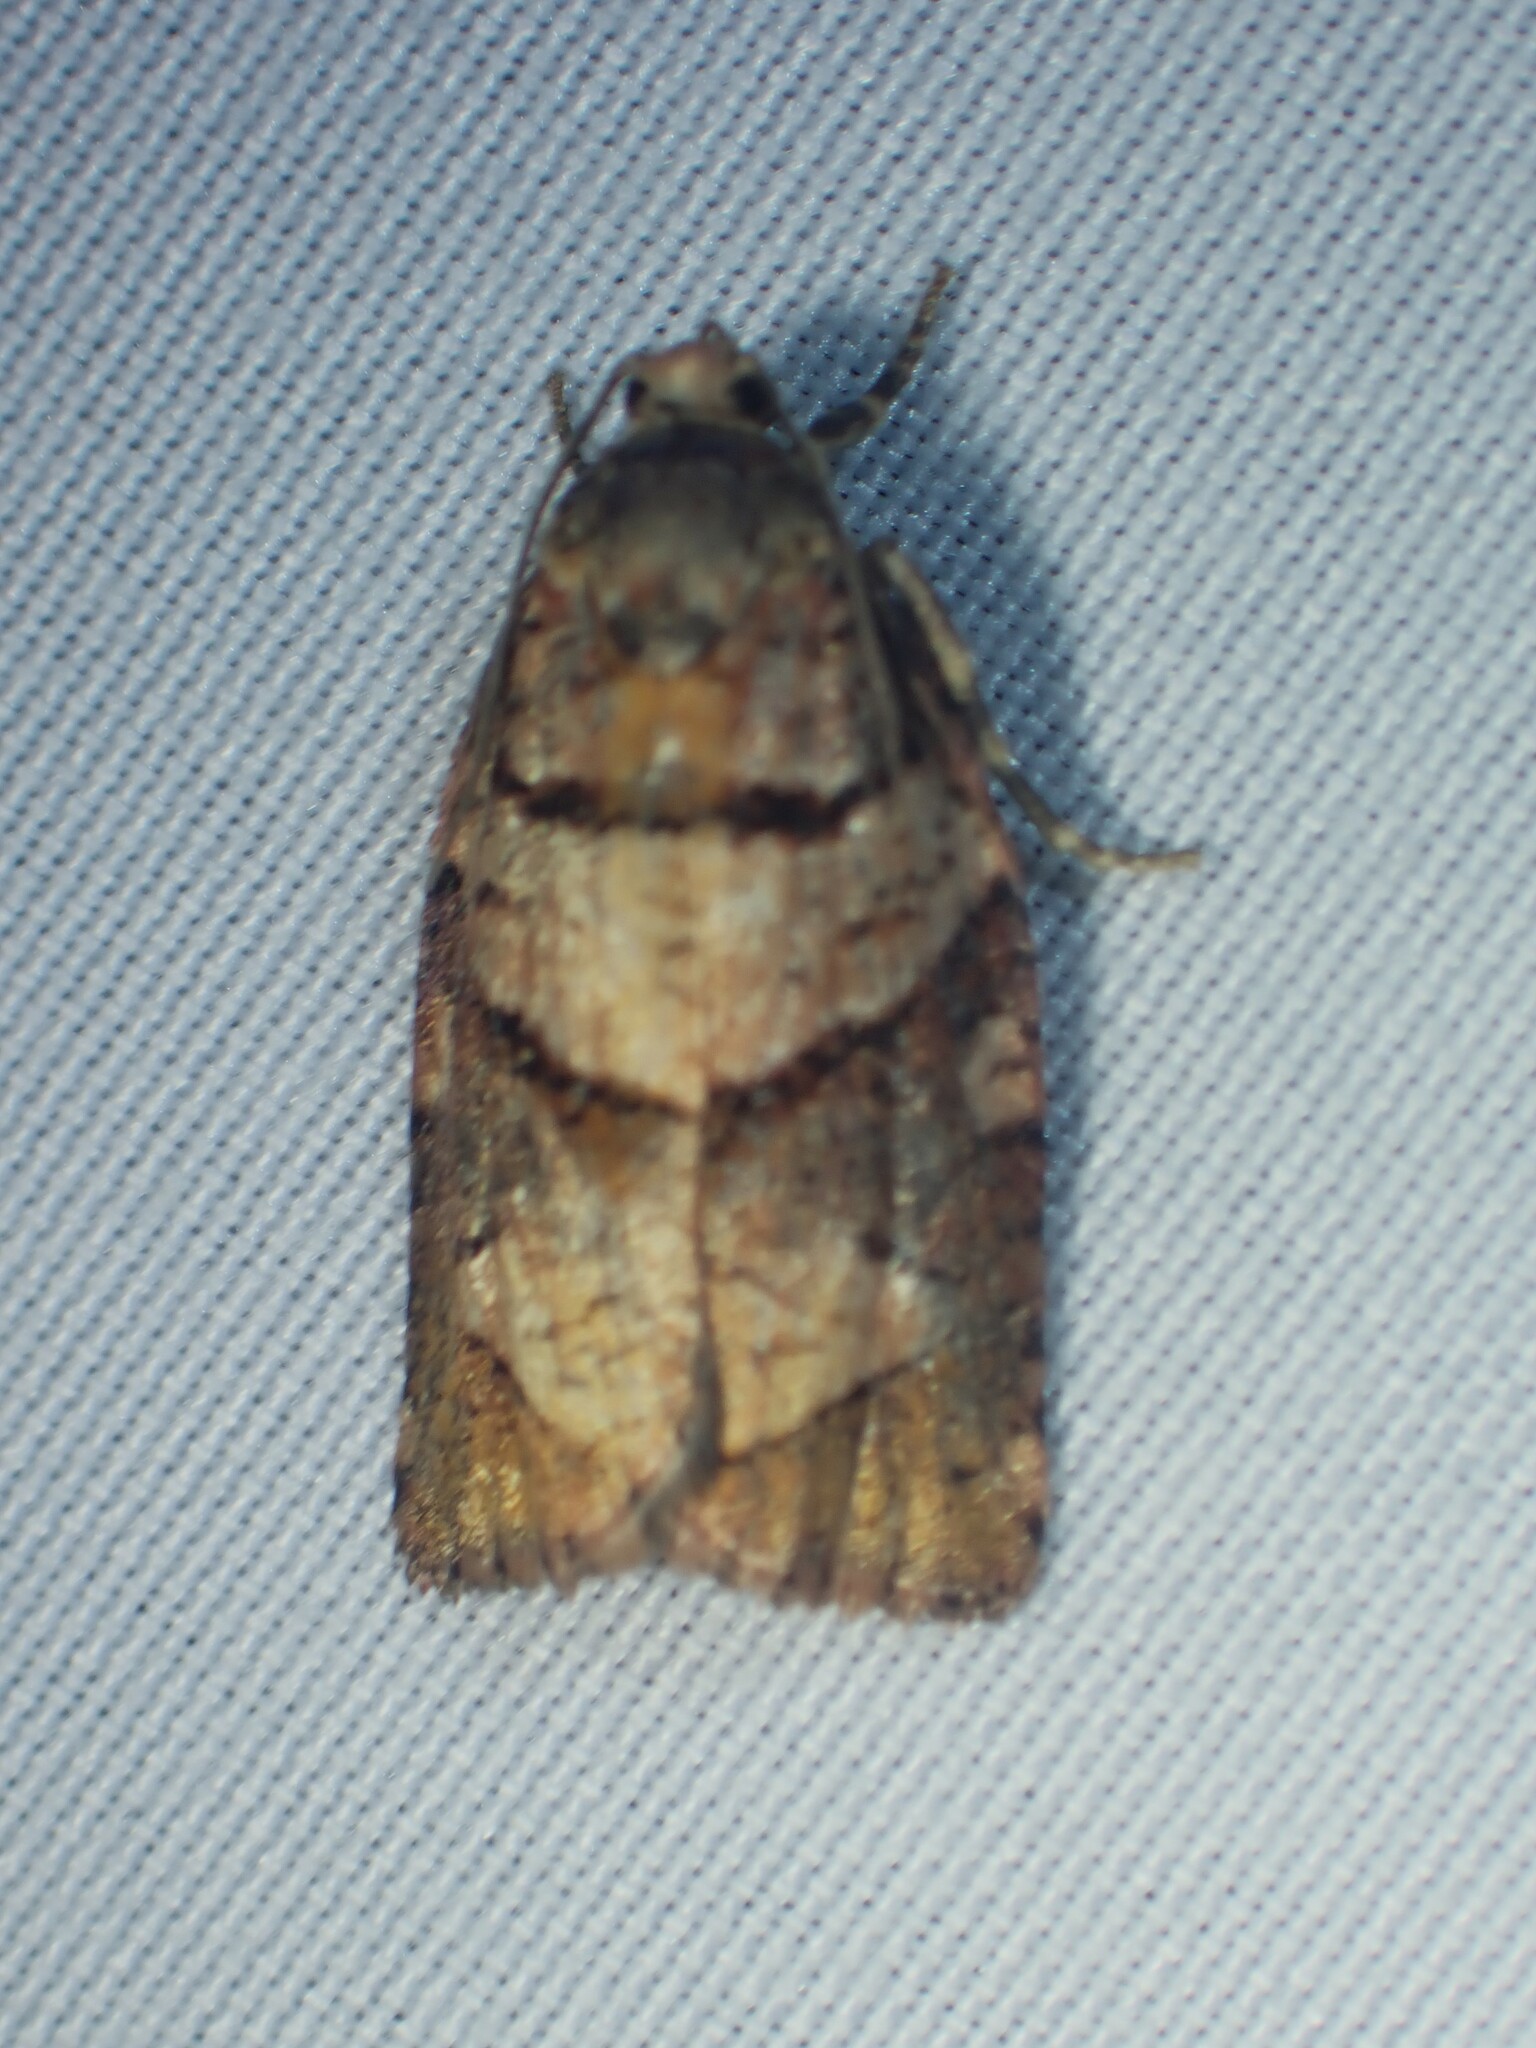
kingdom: Animalia
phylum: Arthropoda
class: Insecta
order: Lepidoptera
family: Tortricidae
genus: Archips
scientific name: Archips alberta
